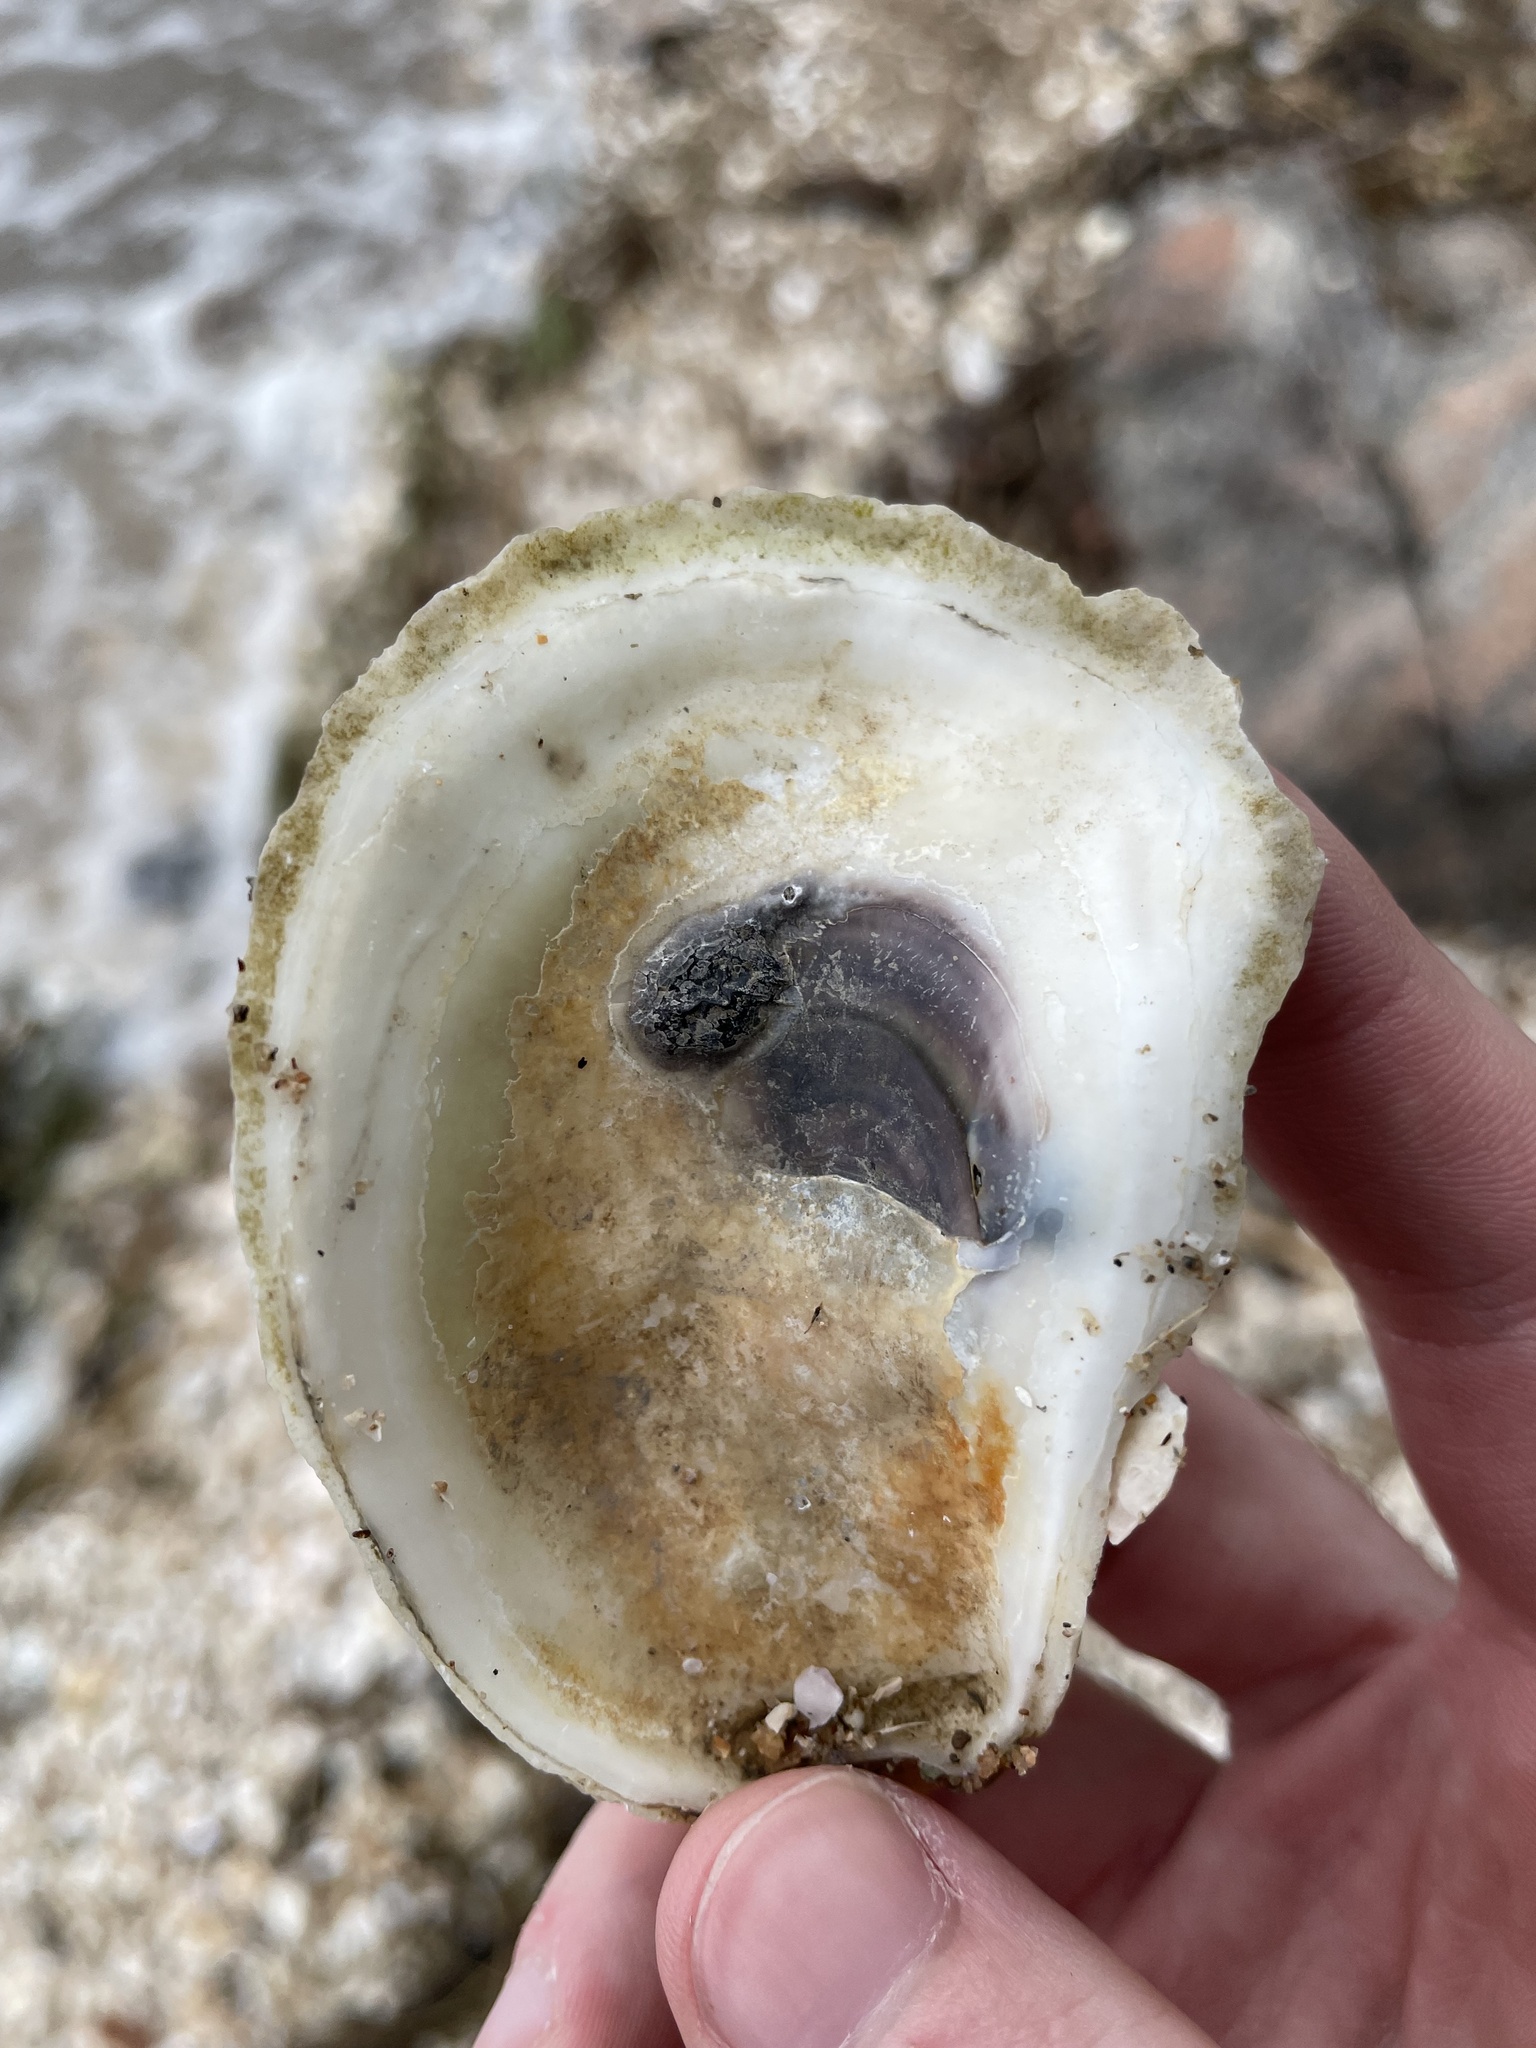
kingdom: Animalia
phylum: Mollusca
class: Bivalvia
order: Ostreida
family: Ostreidae
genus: Crassostrea
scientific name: Crassostrea virginica
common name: American oyster
